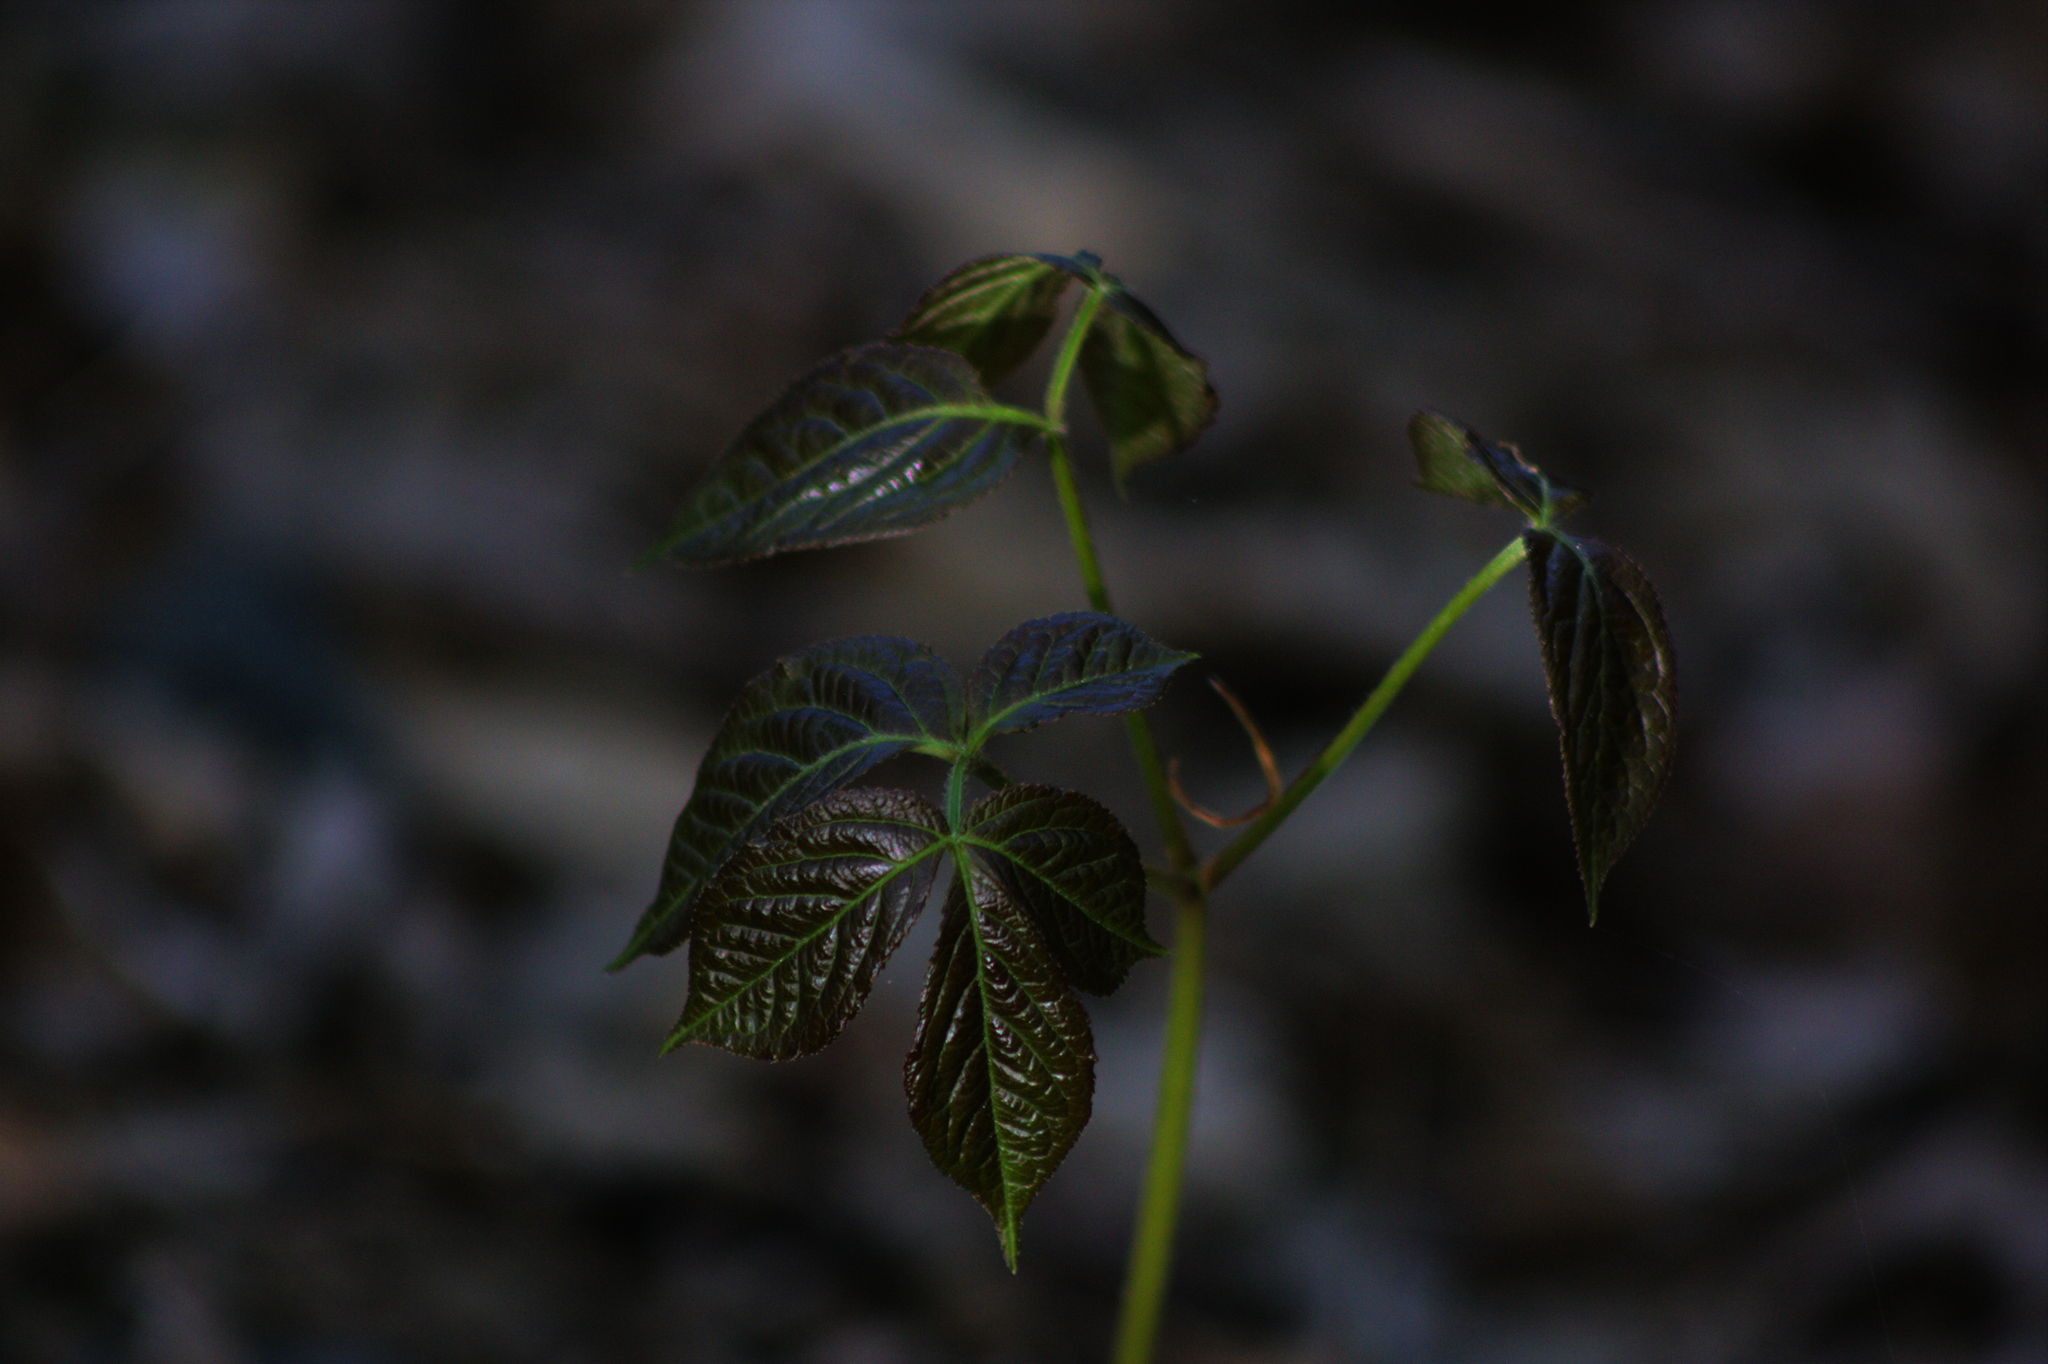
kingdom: Plantae
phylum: Tracheophyta
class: Magnoliopsida
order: Apiales
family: Araliaceae
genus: Aralia
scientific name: Aralia nudicaulis
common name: Wild sarsaparilla
